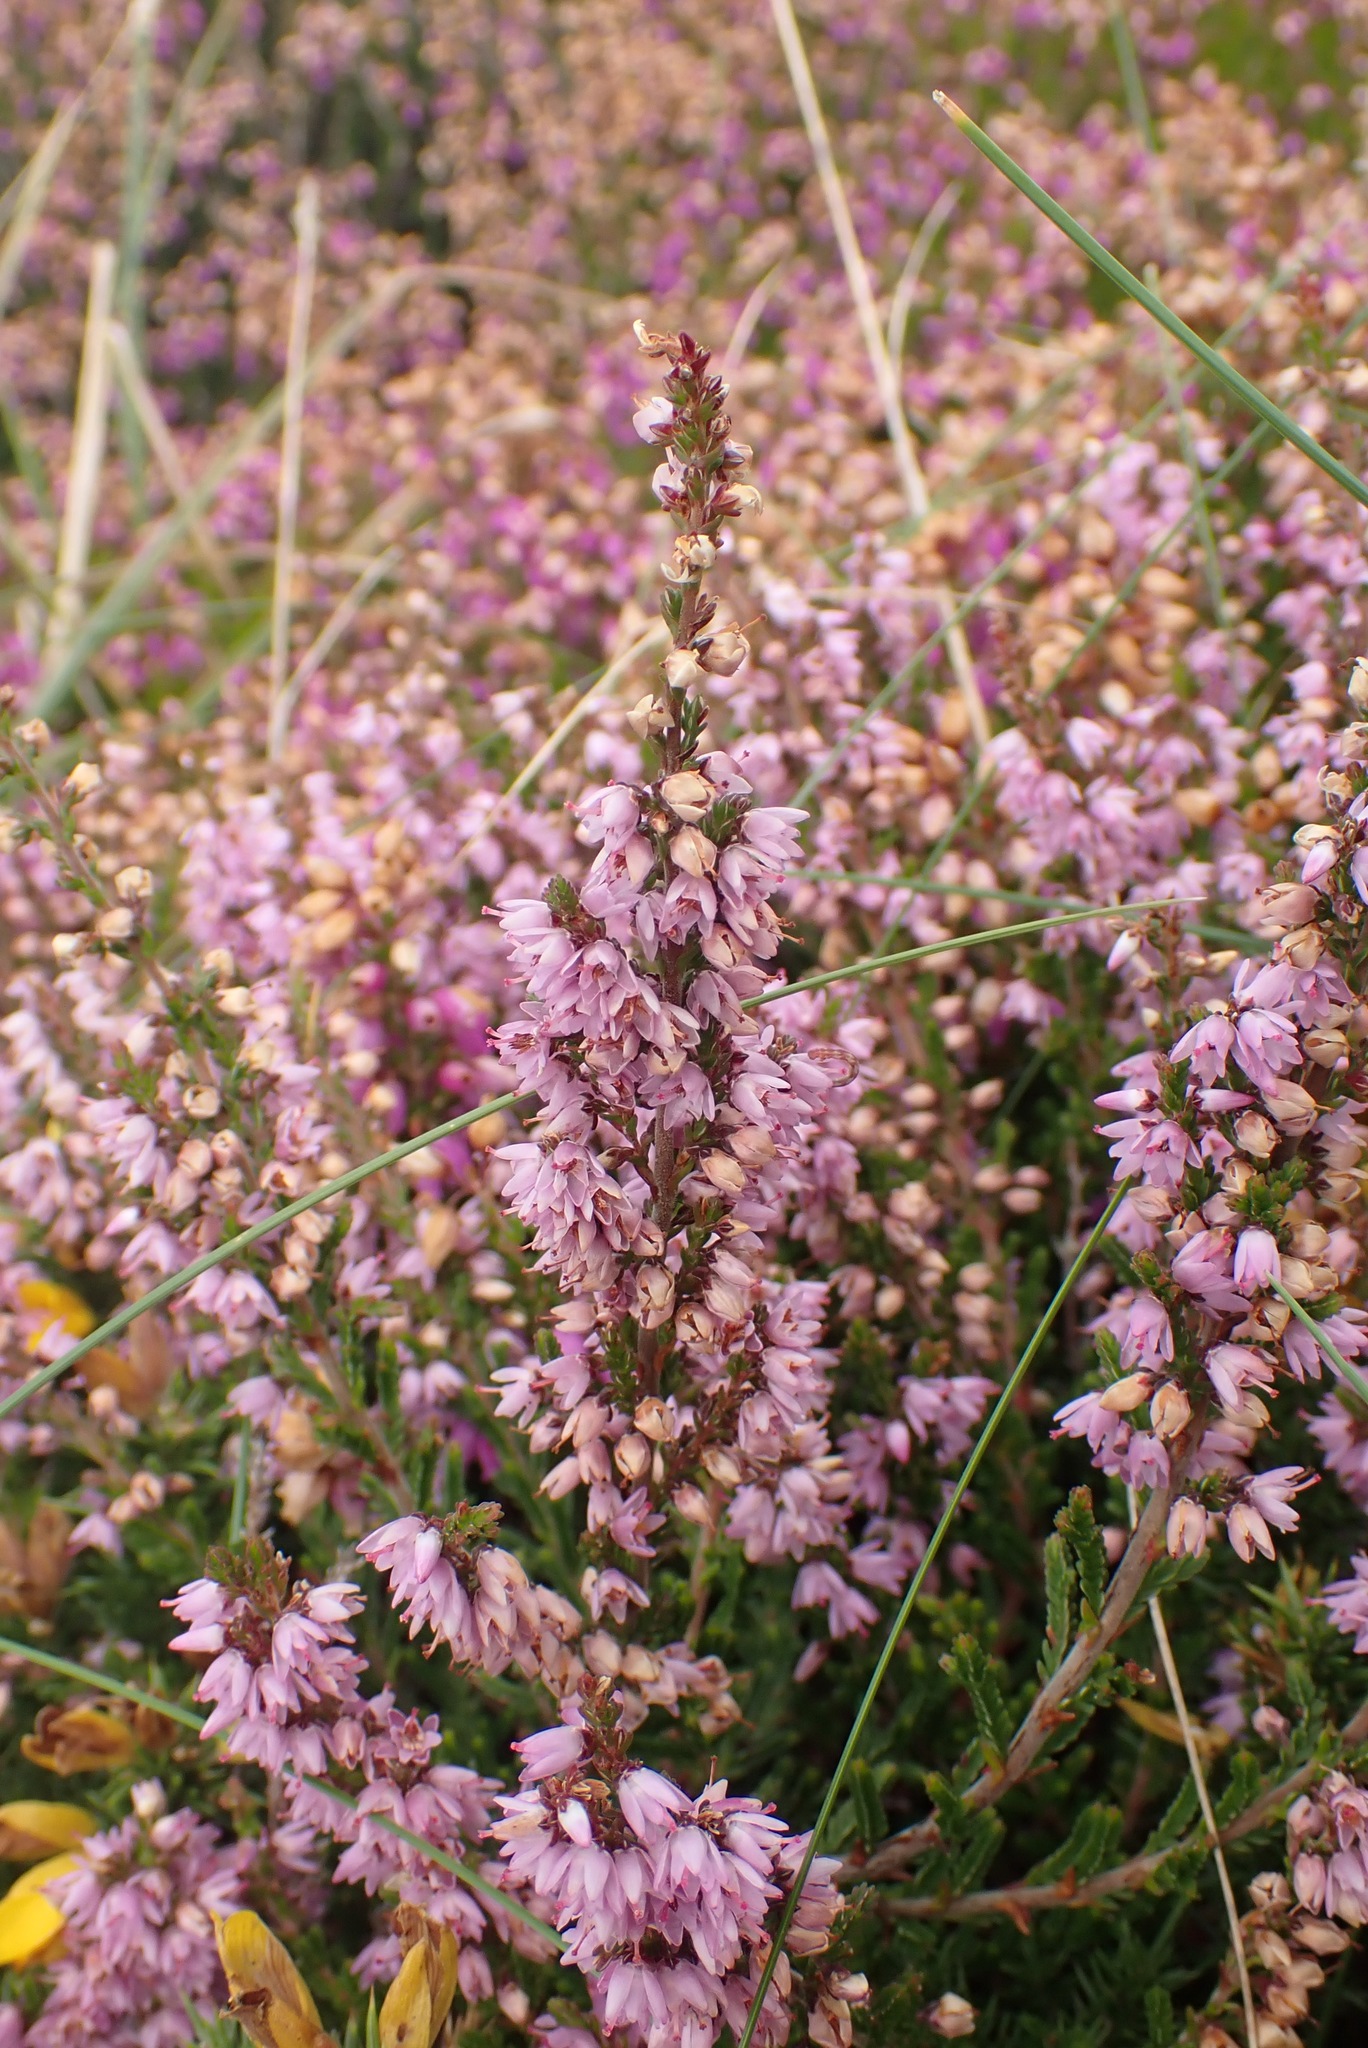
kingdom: Plantae
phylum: Tracheophyta
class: Magnoliopsida
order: Ericales
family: Ericaceae
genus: Calluna
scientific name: Calluna vulgaris
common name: Heather
